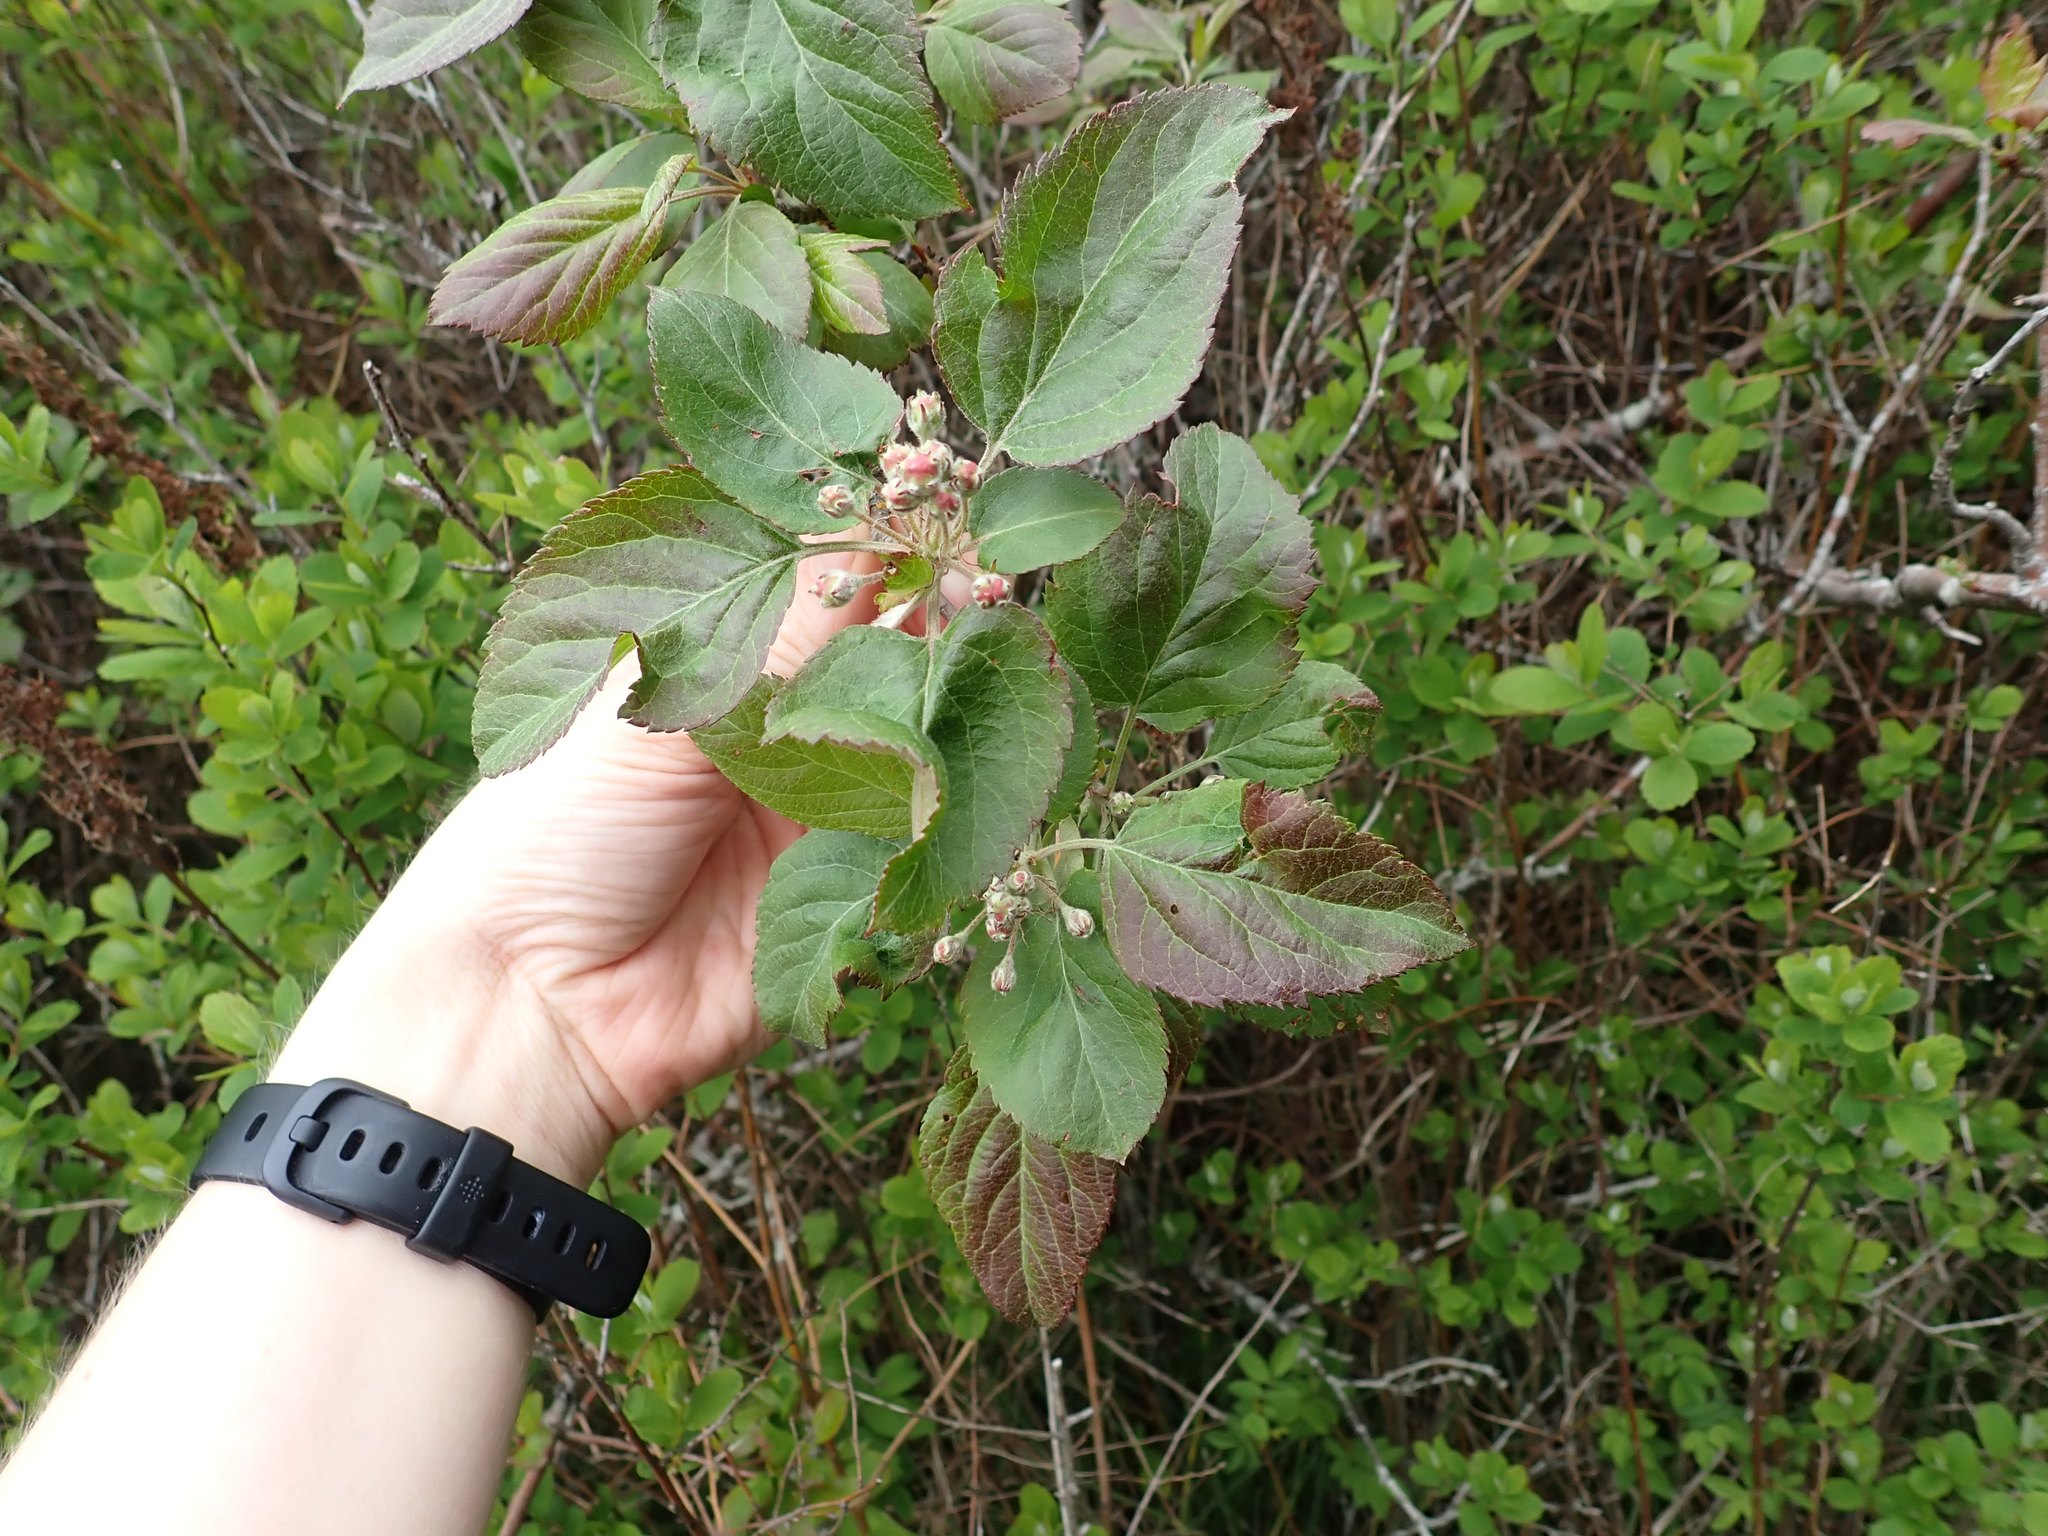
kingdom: Plantae
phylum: Tracheophyta
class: Magnoliopsida
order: Rosales
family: Rosaceae
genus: Malus
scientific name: Malus fusca
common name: Oregon crab apple
